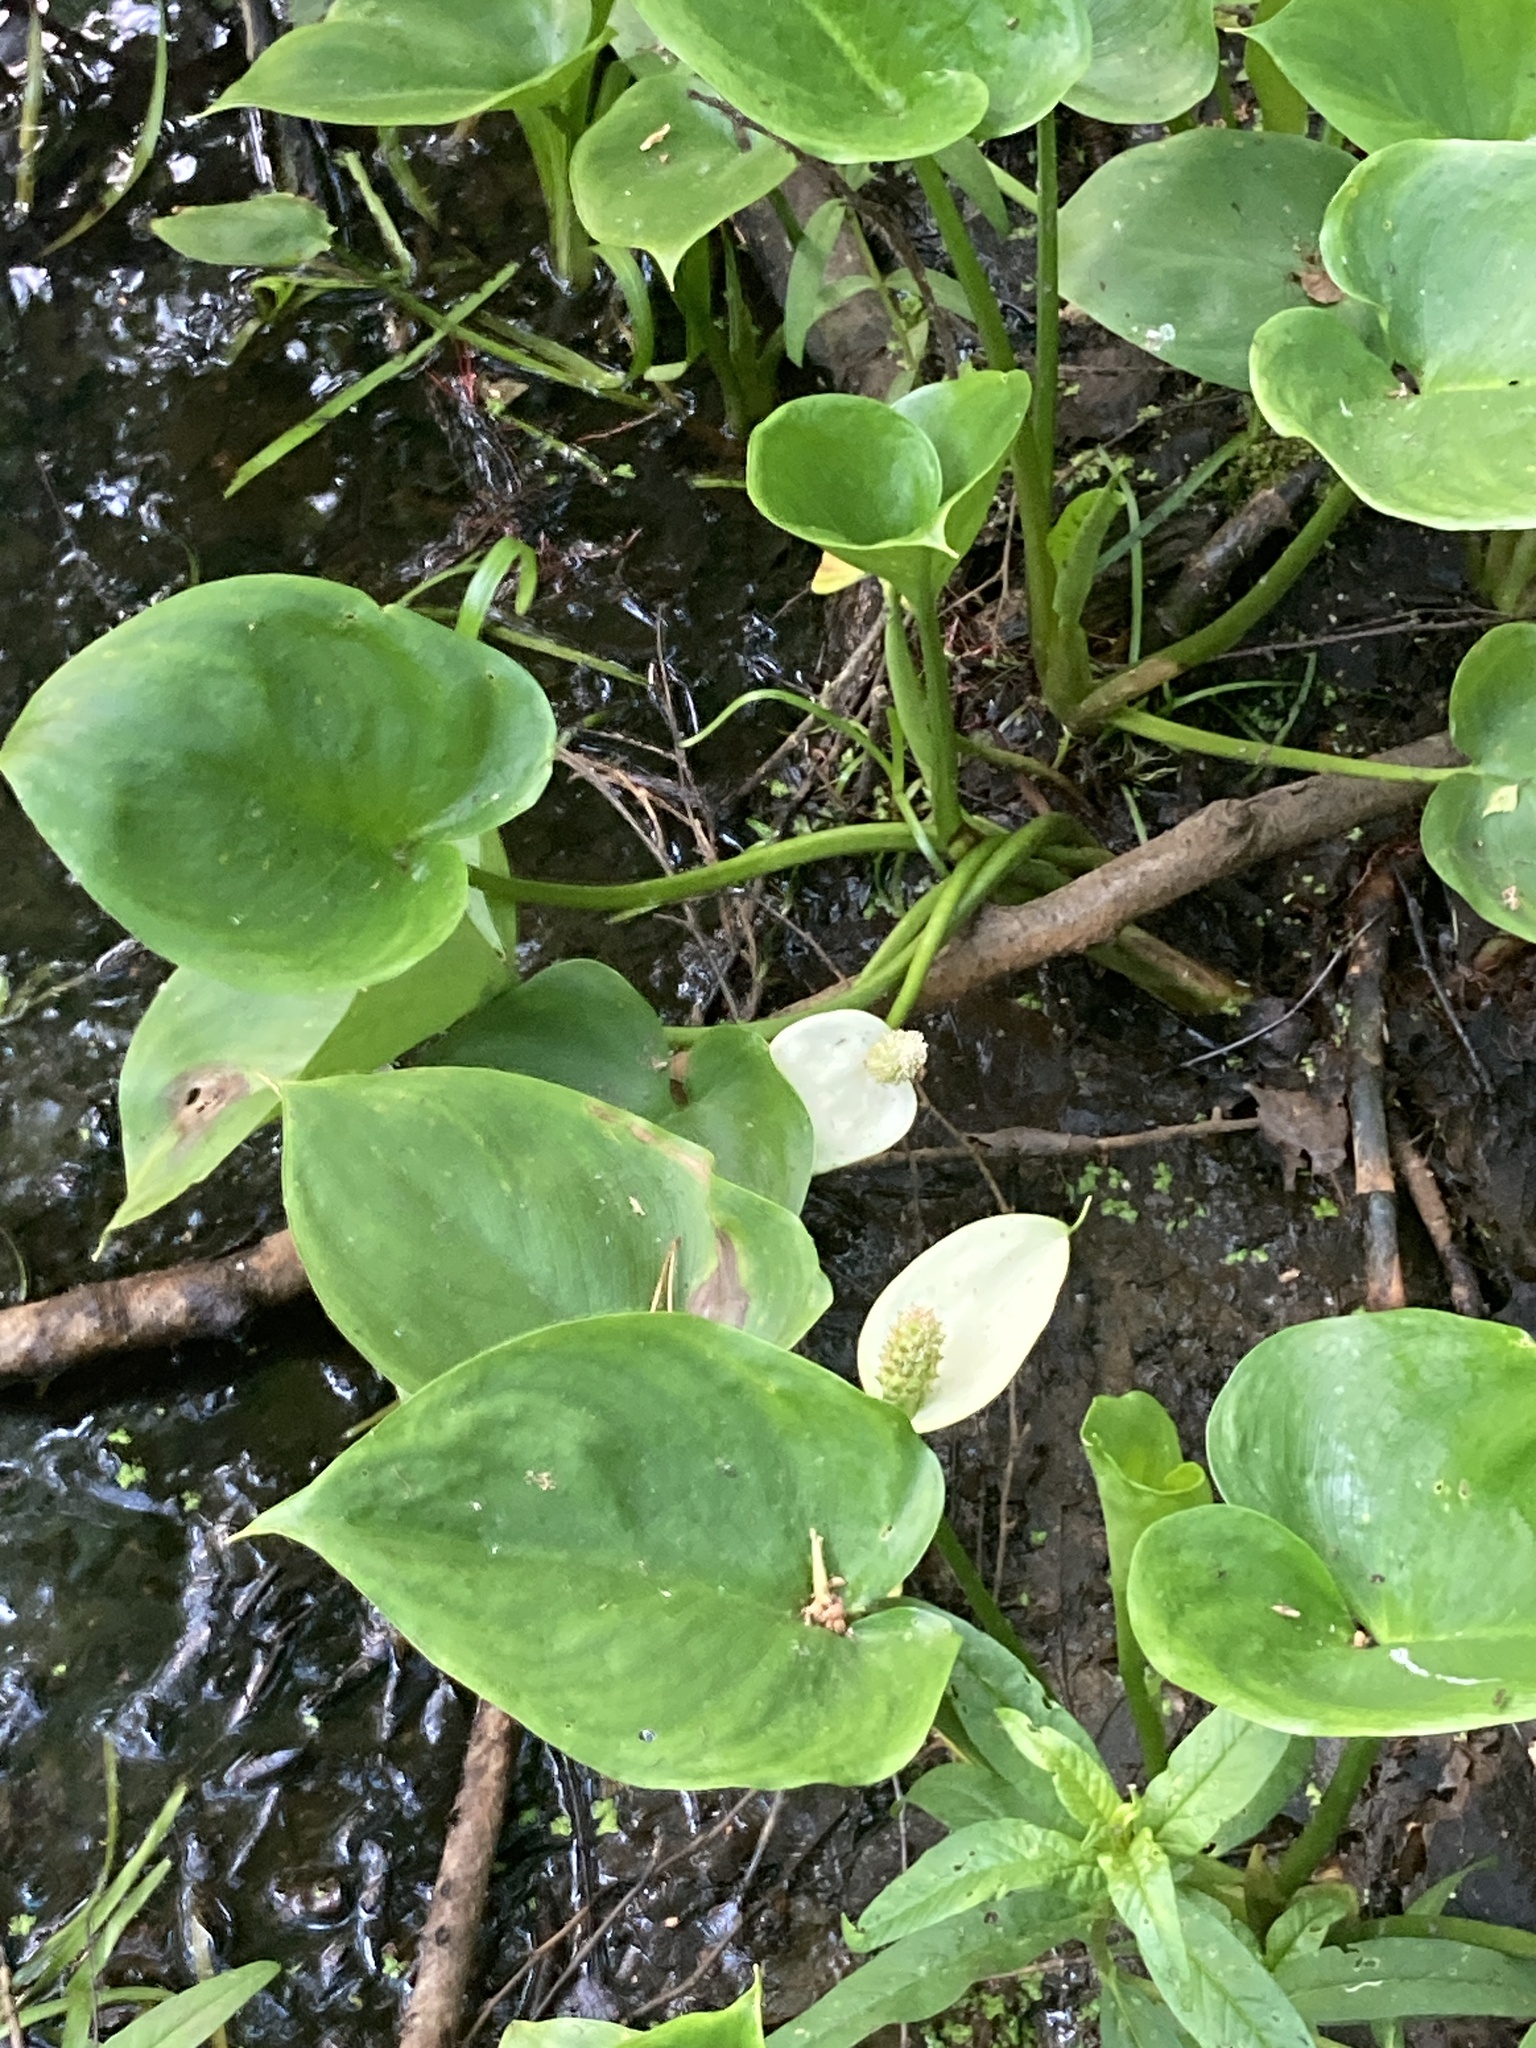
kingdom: Plantae
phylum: Tracheophyta
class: Liliopsida
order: Alismatales
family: Araceae
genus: Calla
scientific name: Calla palustris
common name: Bog arum
